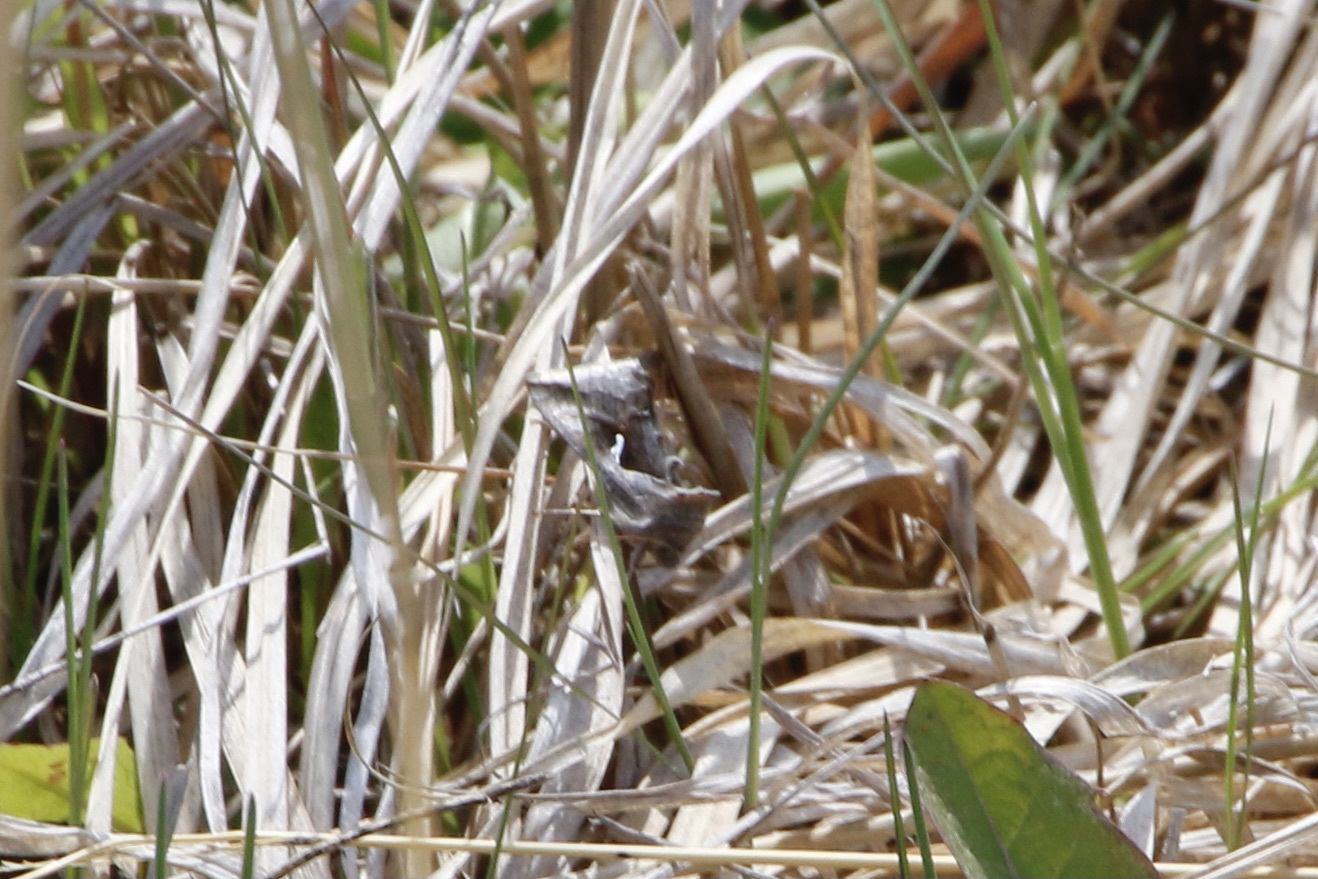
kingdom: Animalia
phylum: Arthropoda
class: Insecta
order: Lepidoptera
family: Noctuidae
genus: Anagrapha
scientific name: Anagrapha falcifera
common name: Celery looper
